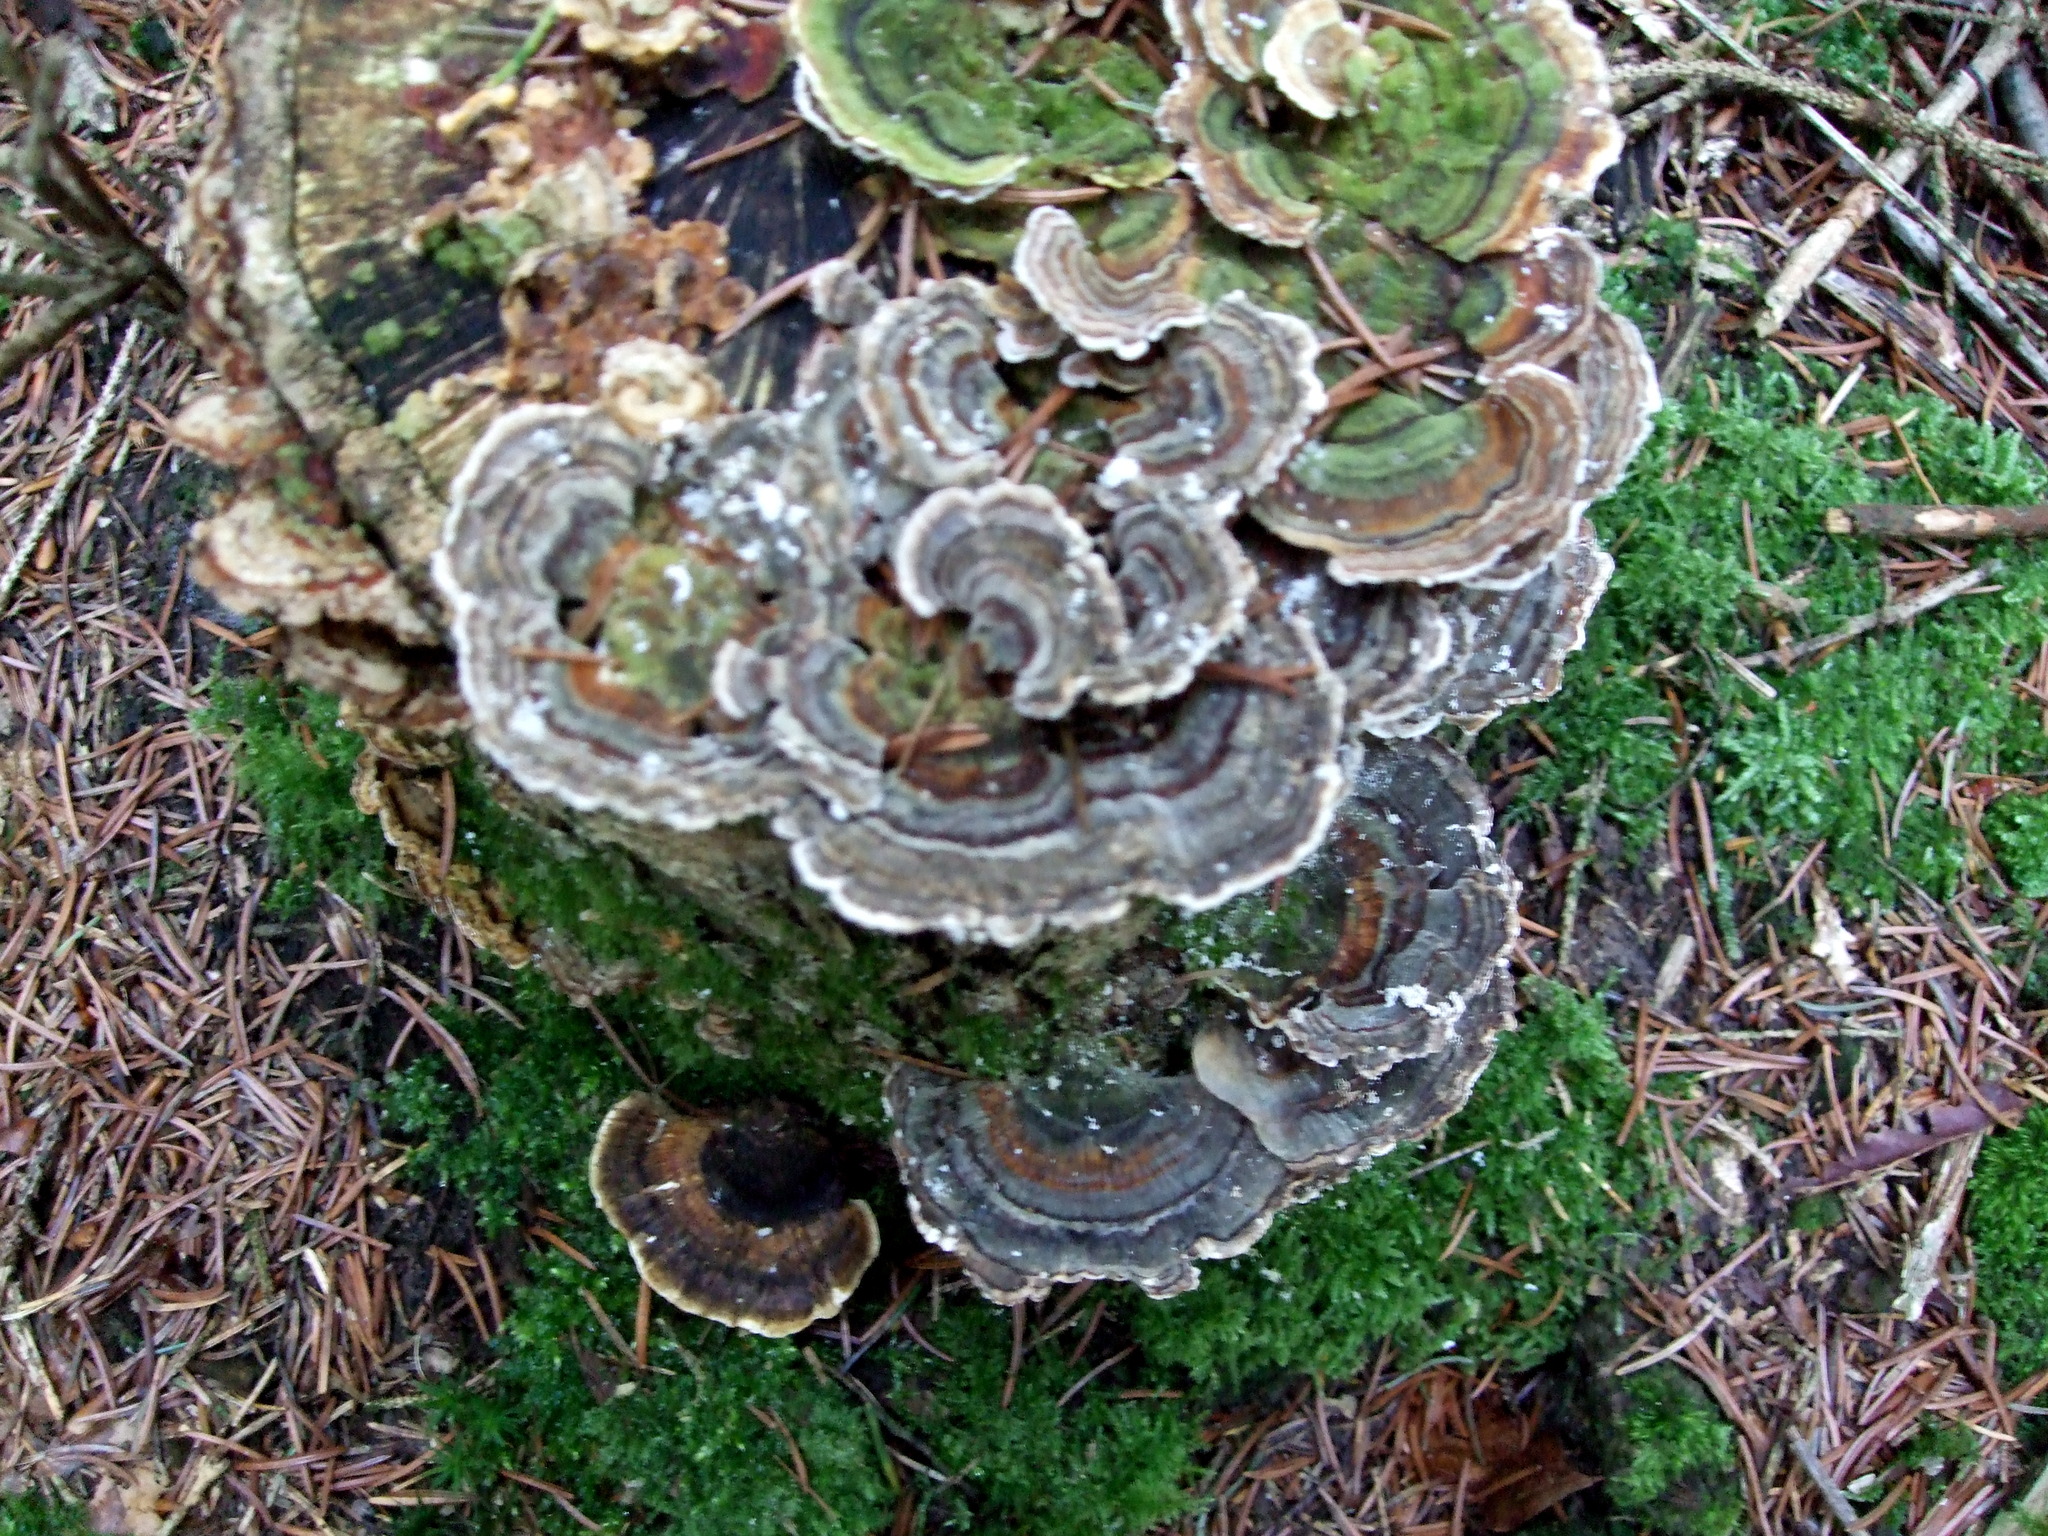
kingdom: Fungi
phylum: Basidiomycota
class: Agaricomycetes
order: Polyporales
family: Polyporaceae
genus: Trametes
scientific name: Trametes versicolor
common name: Turkeytail
